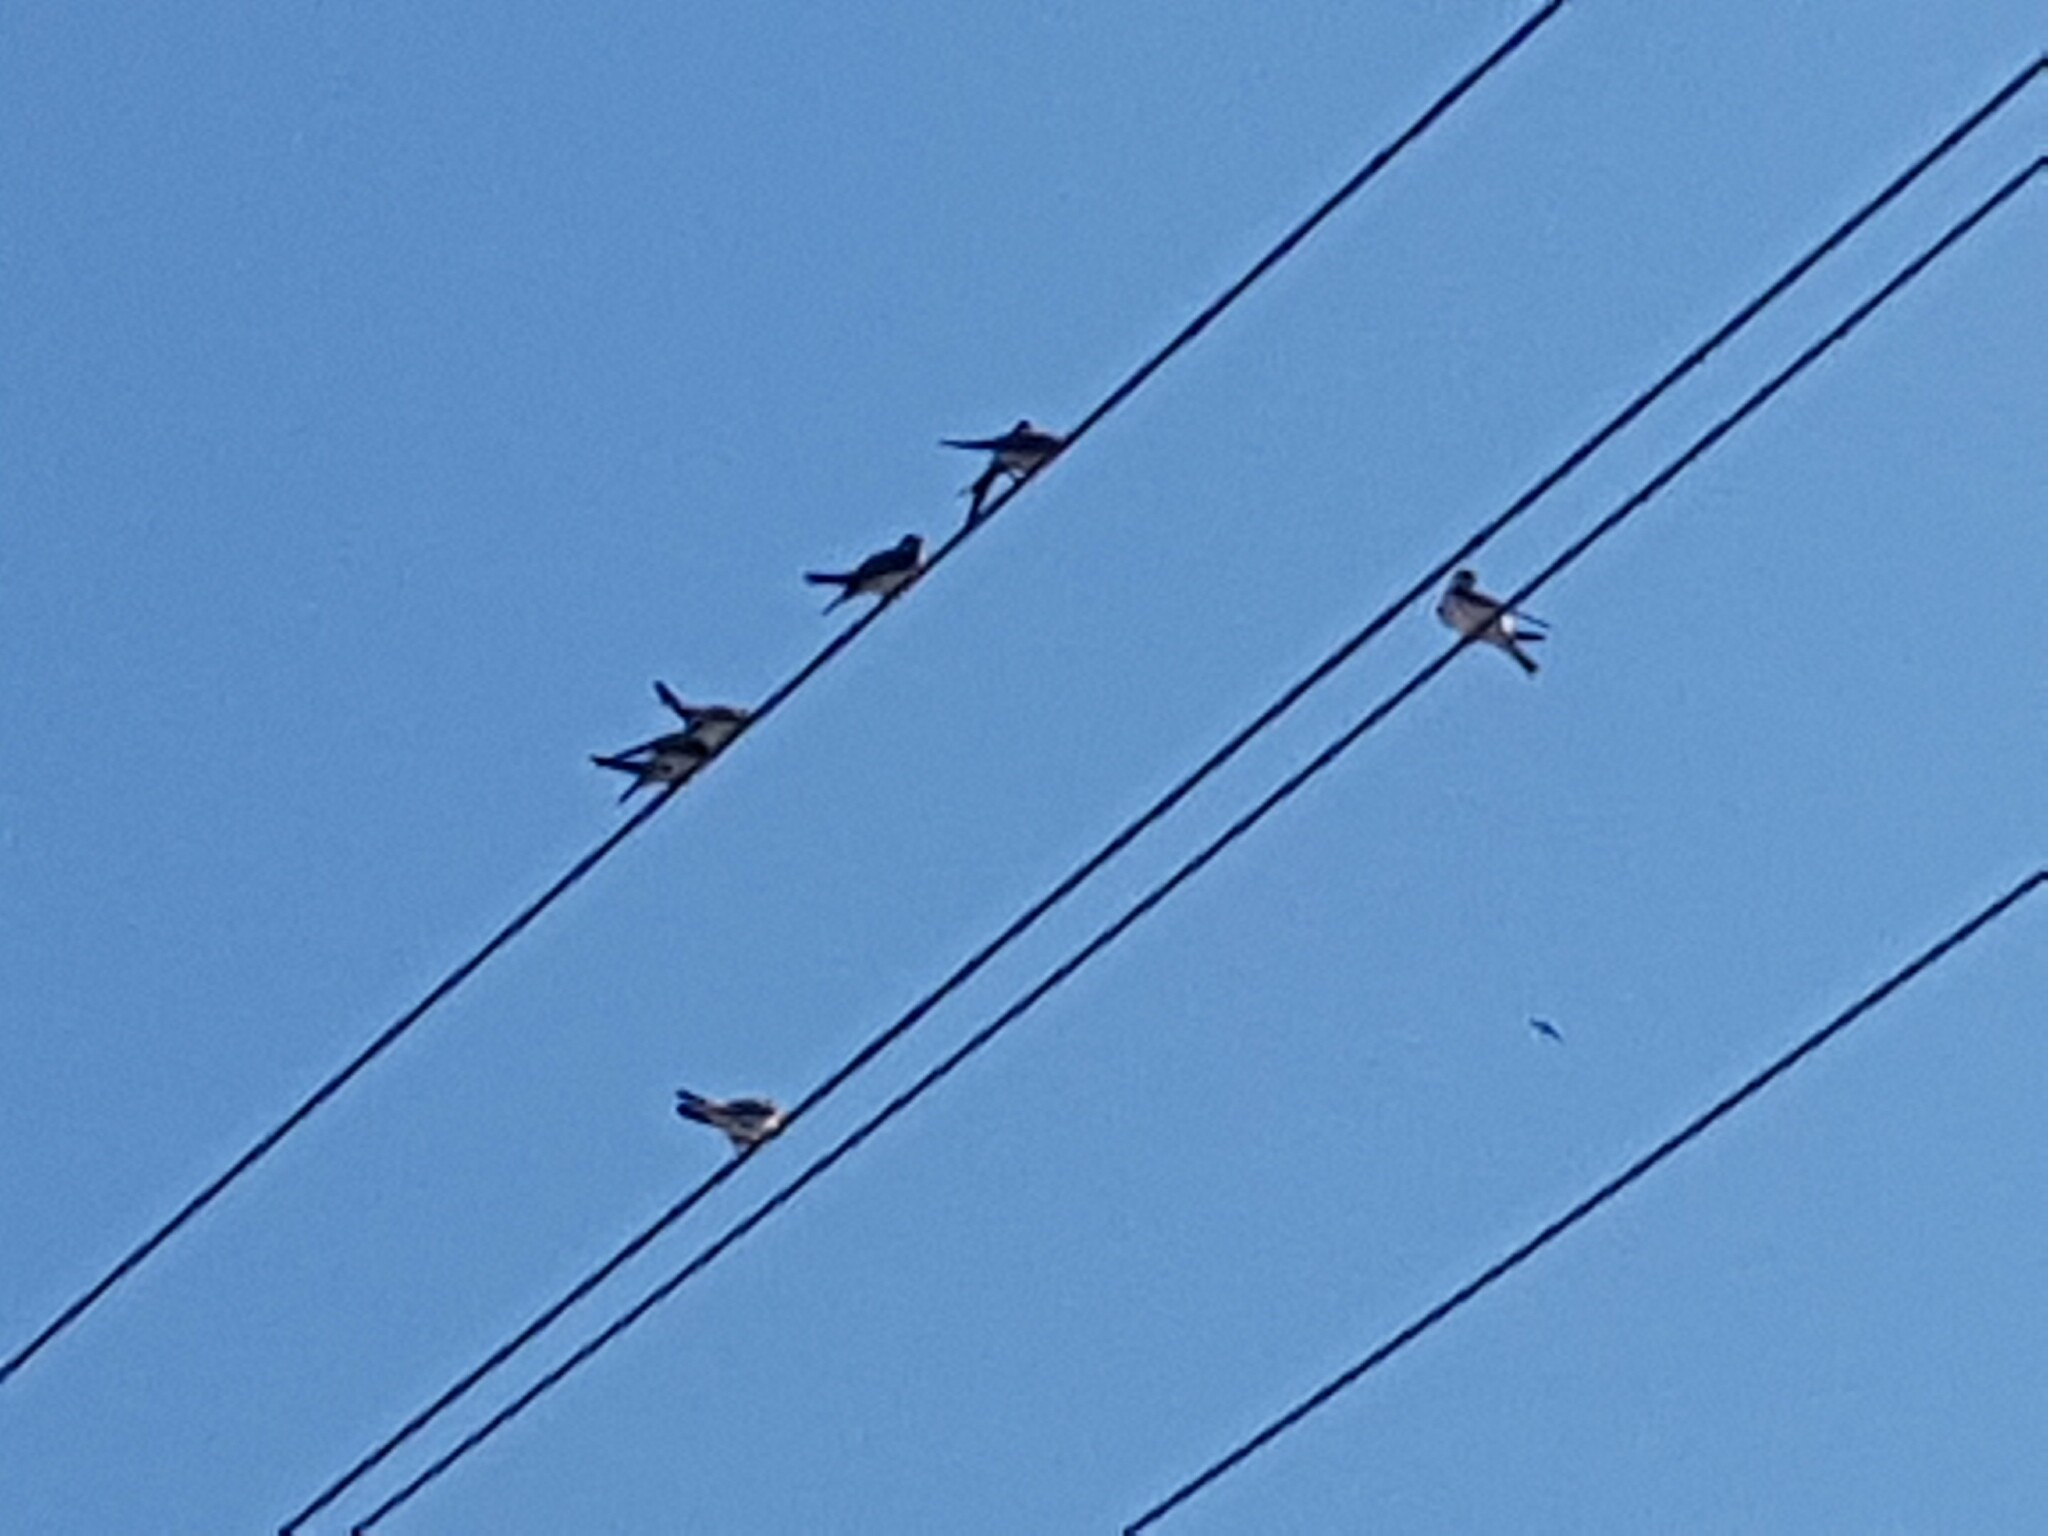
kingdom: Animalia
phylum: Chordata
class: Aves
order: Passeriformes
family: Hirundinidae
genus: Delichon
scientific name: Delichon urbicum
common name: Common house martin
